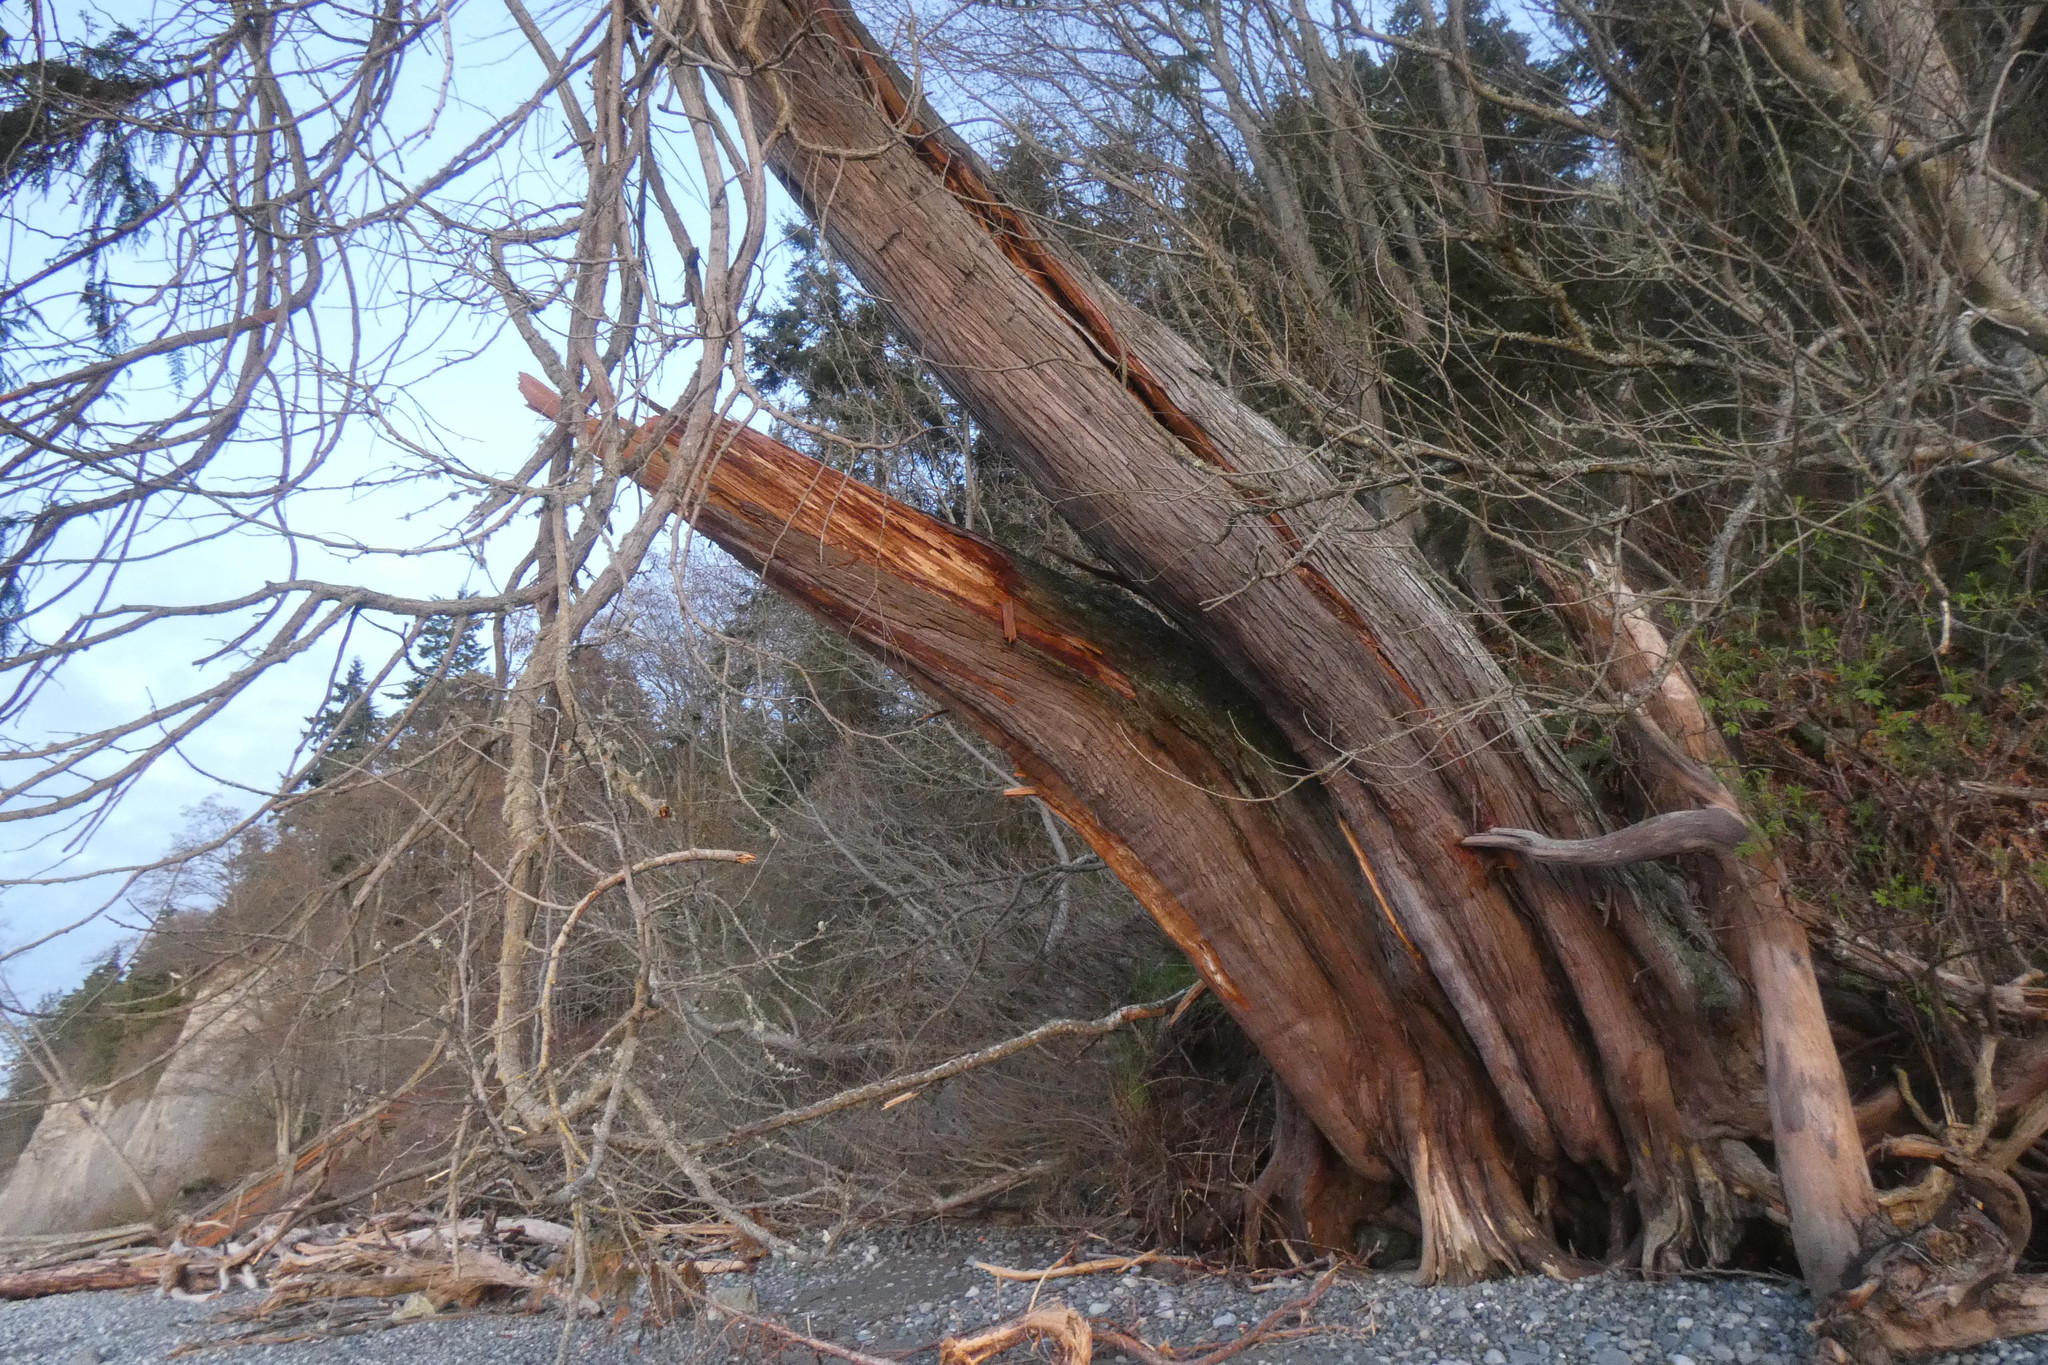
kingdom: Plantae
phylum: Tracheophyta
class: Pinopsida
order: Pinales
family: Cupressaceae
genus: Thuja
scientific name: Thuja plicata
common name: Western red-cedar
